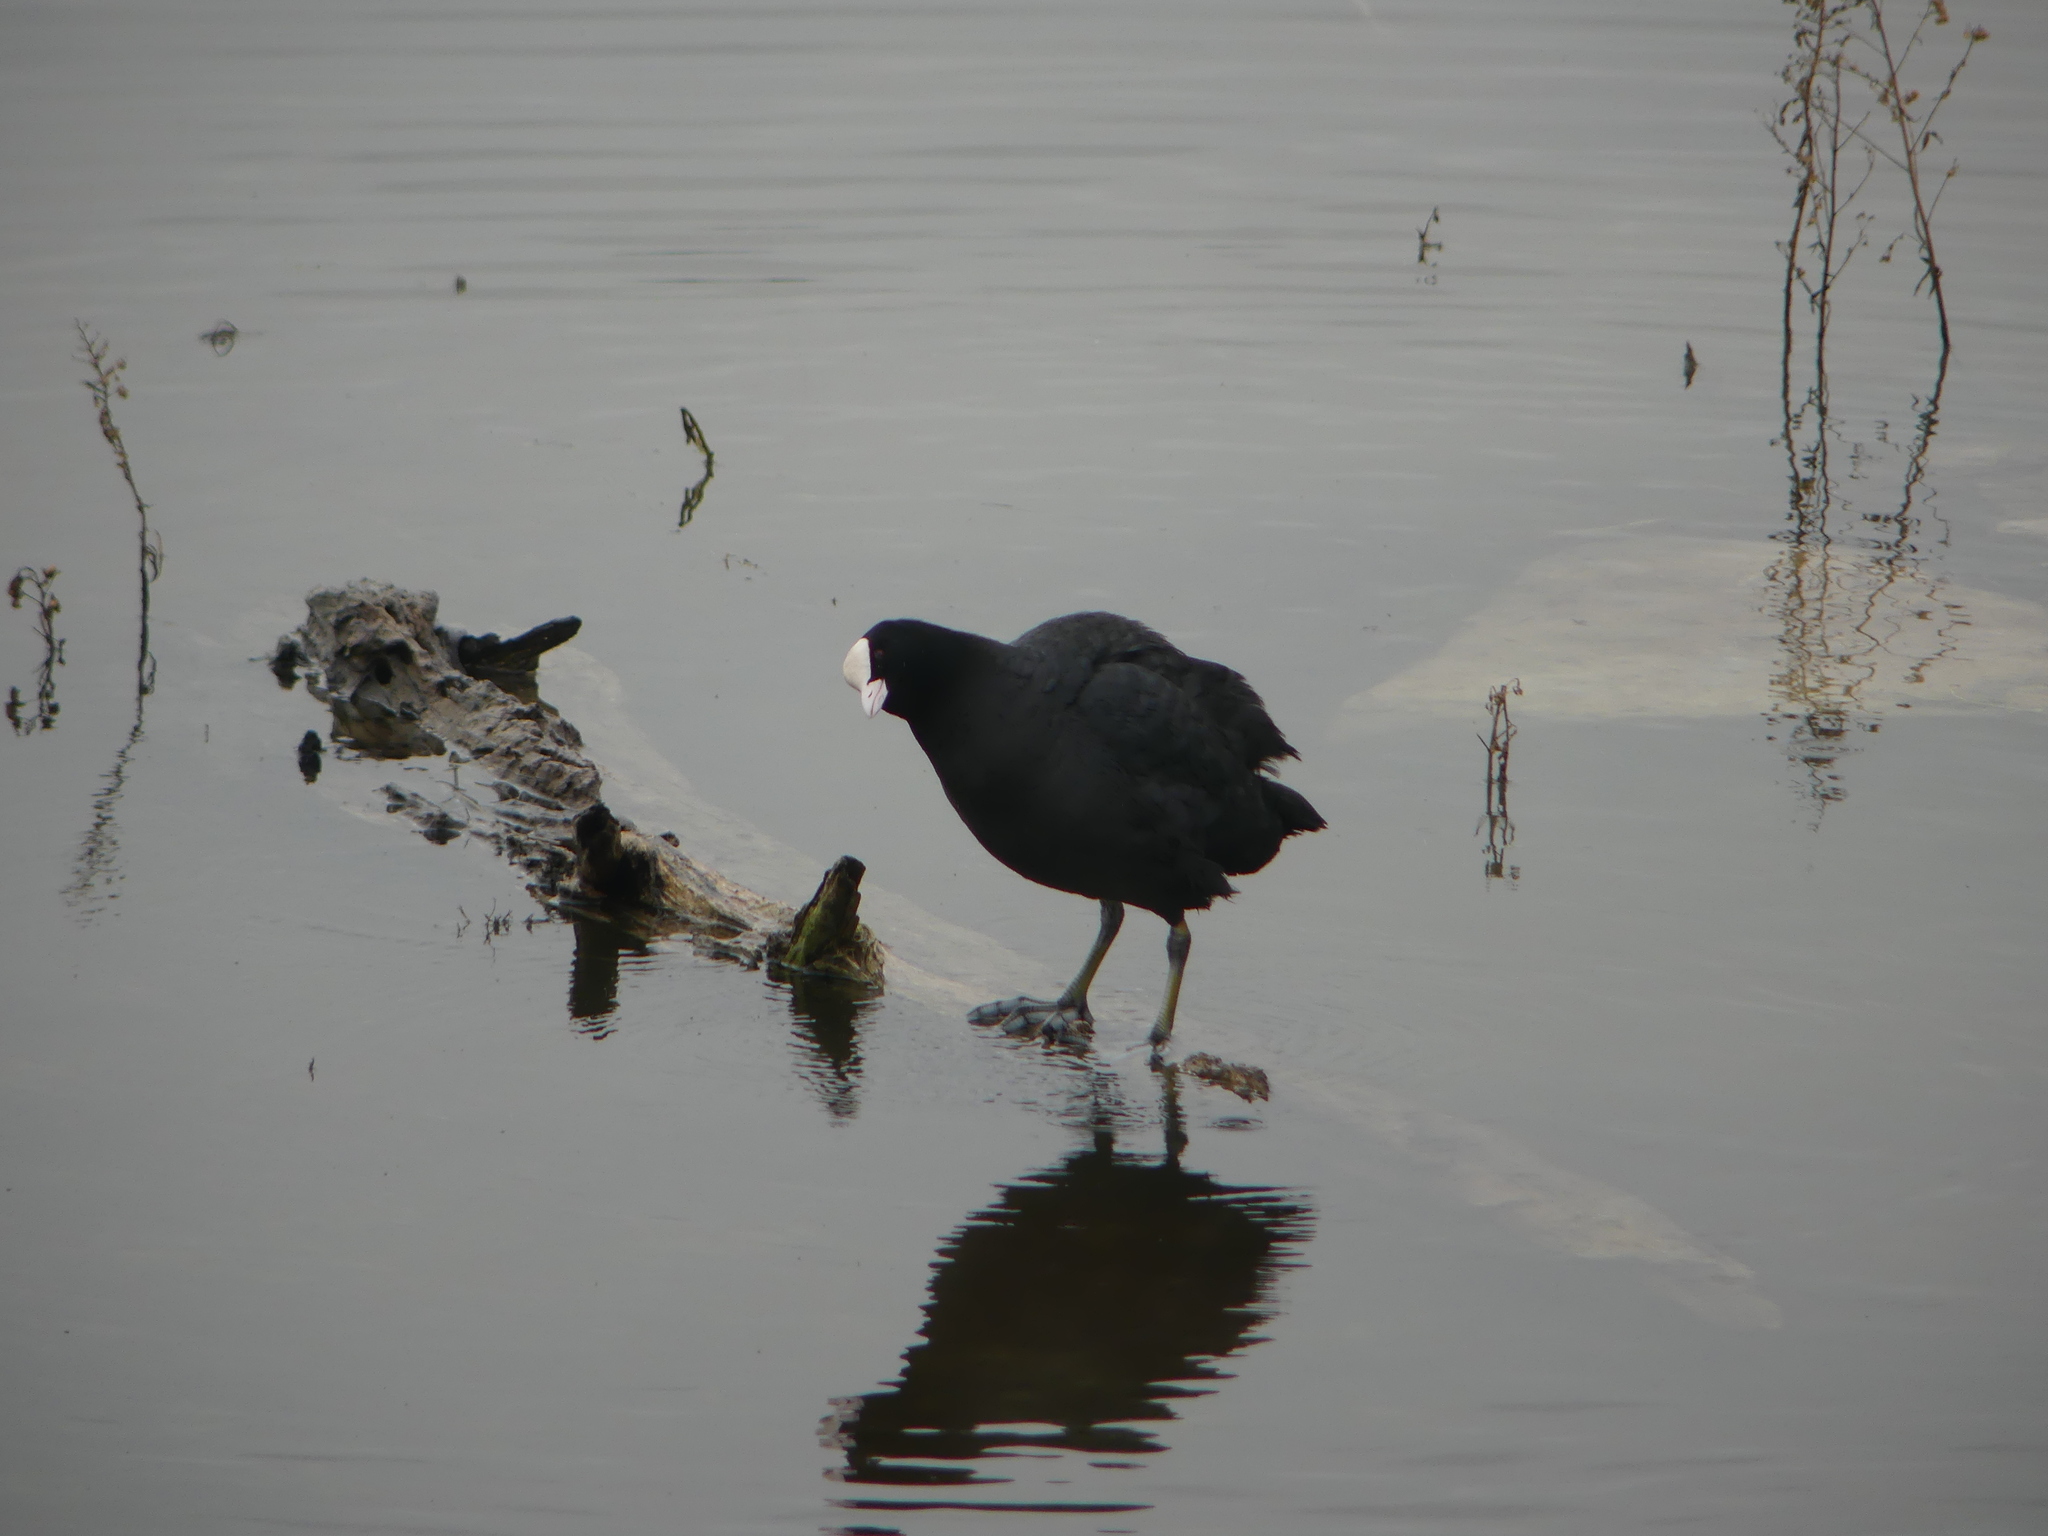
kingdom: Animalia
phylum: Chordata
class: Aves
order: Gruiformes
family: Rallidae
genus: Fulica
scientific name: Fulica atra
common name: Eurasian coot
